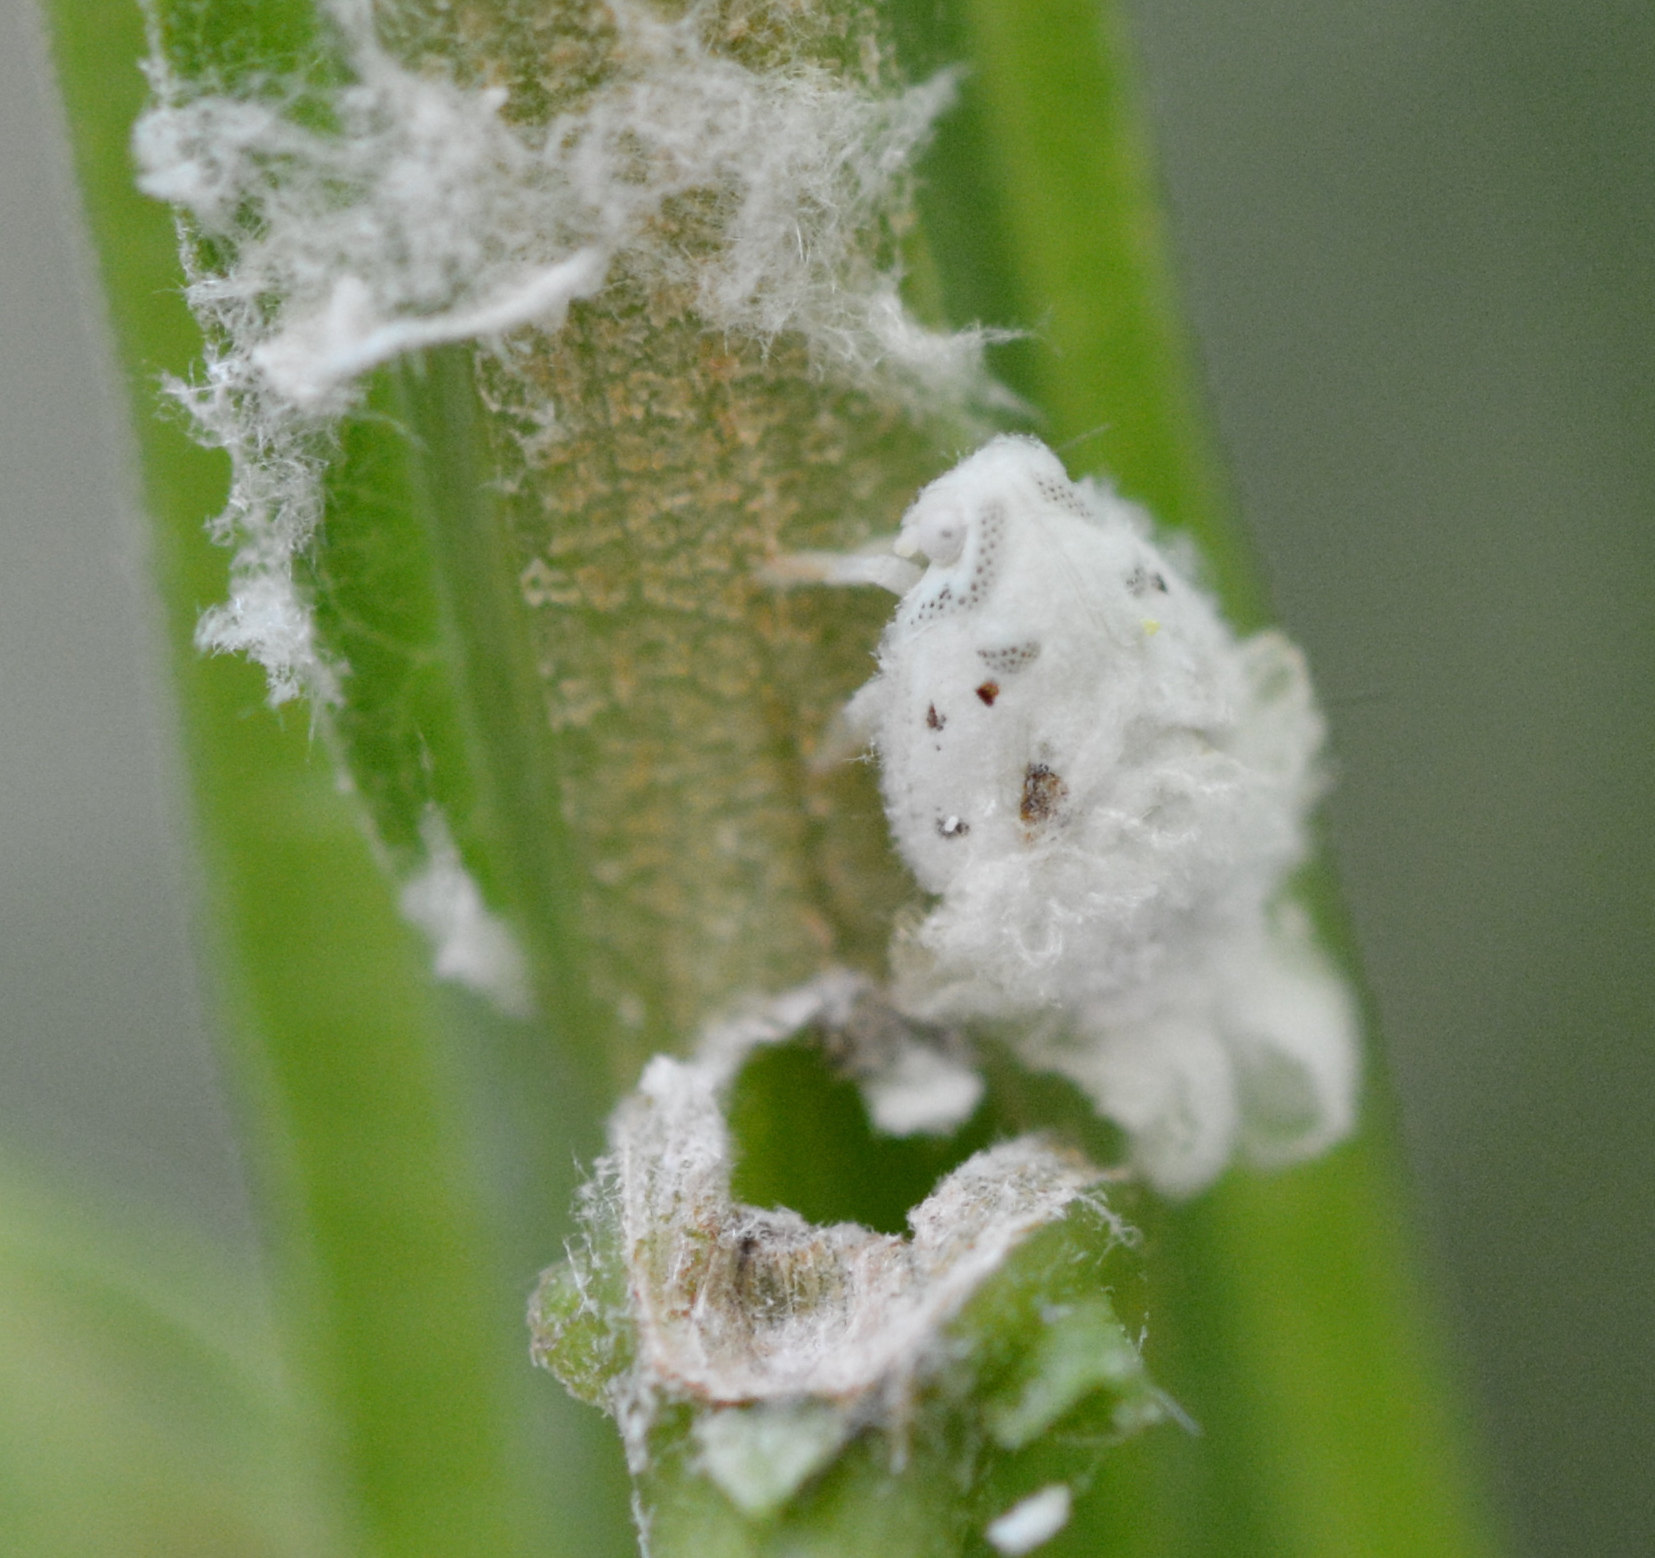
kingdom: Animalia
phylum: Arthropoda
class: Insecta
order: Hemiptera
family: Flatidae
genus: Metcalfa
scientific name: Metcalfa pruinosa
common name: Citrus flatid planthopper
